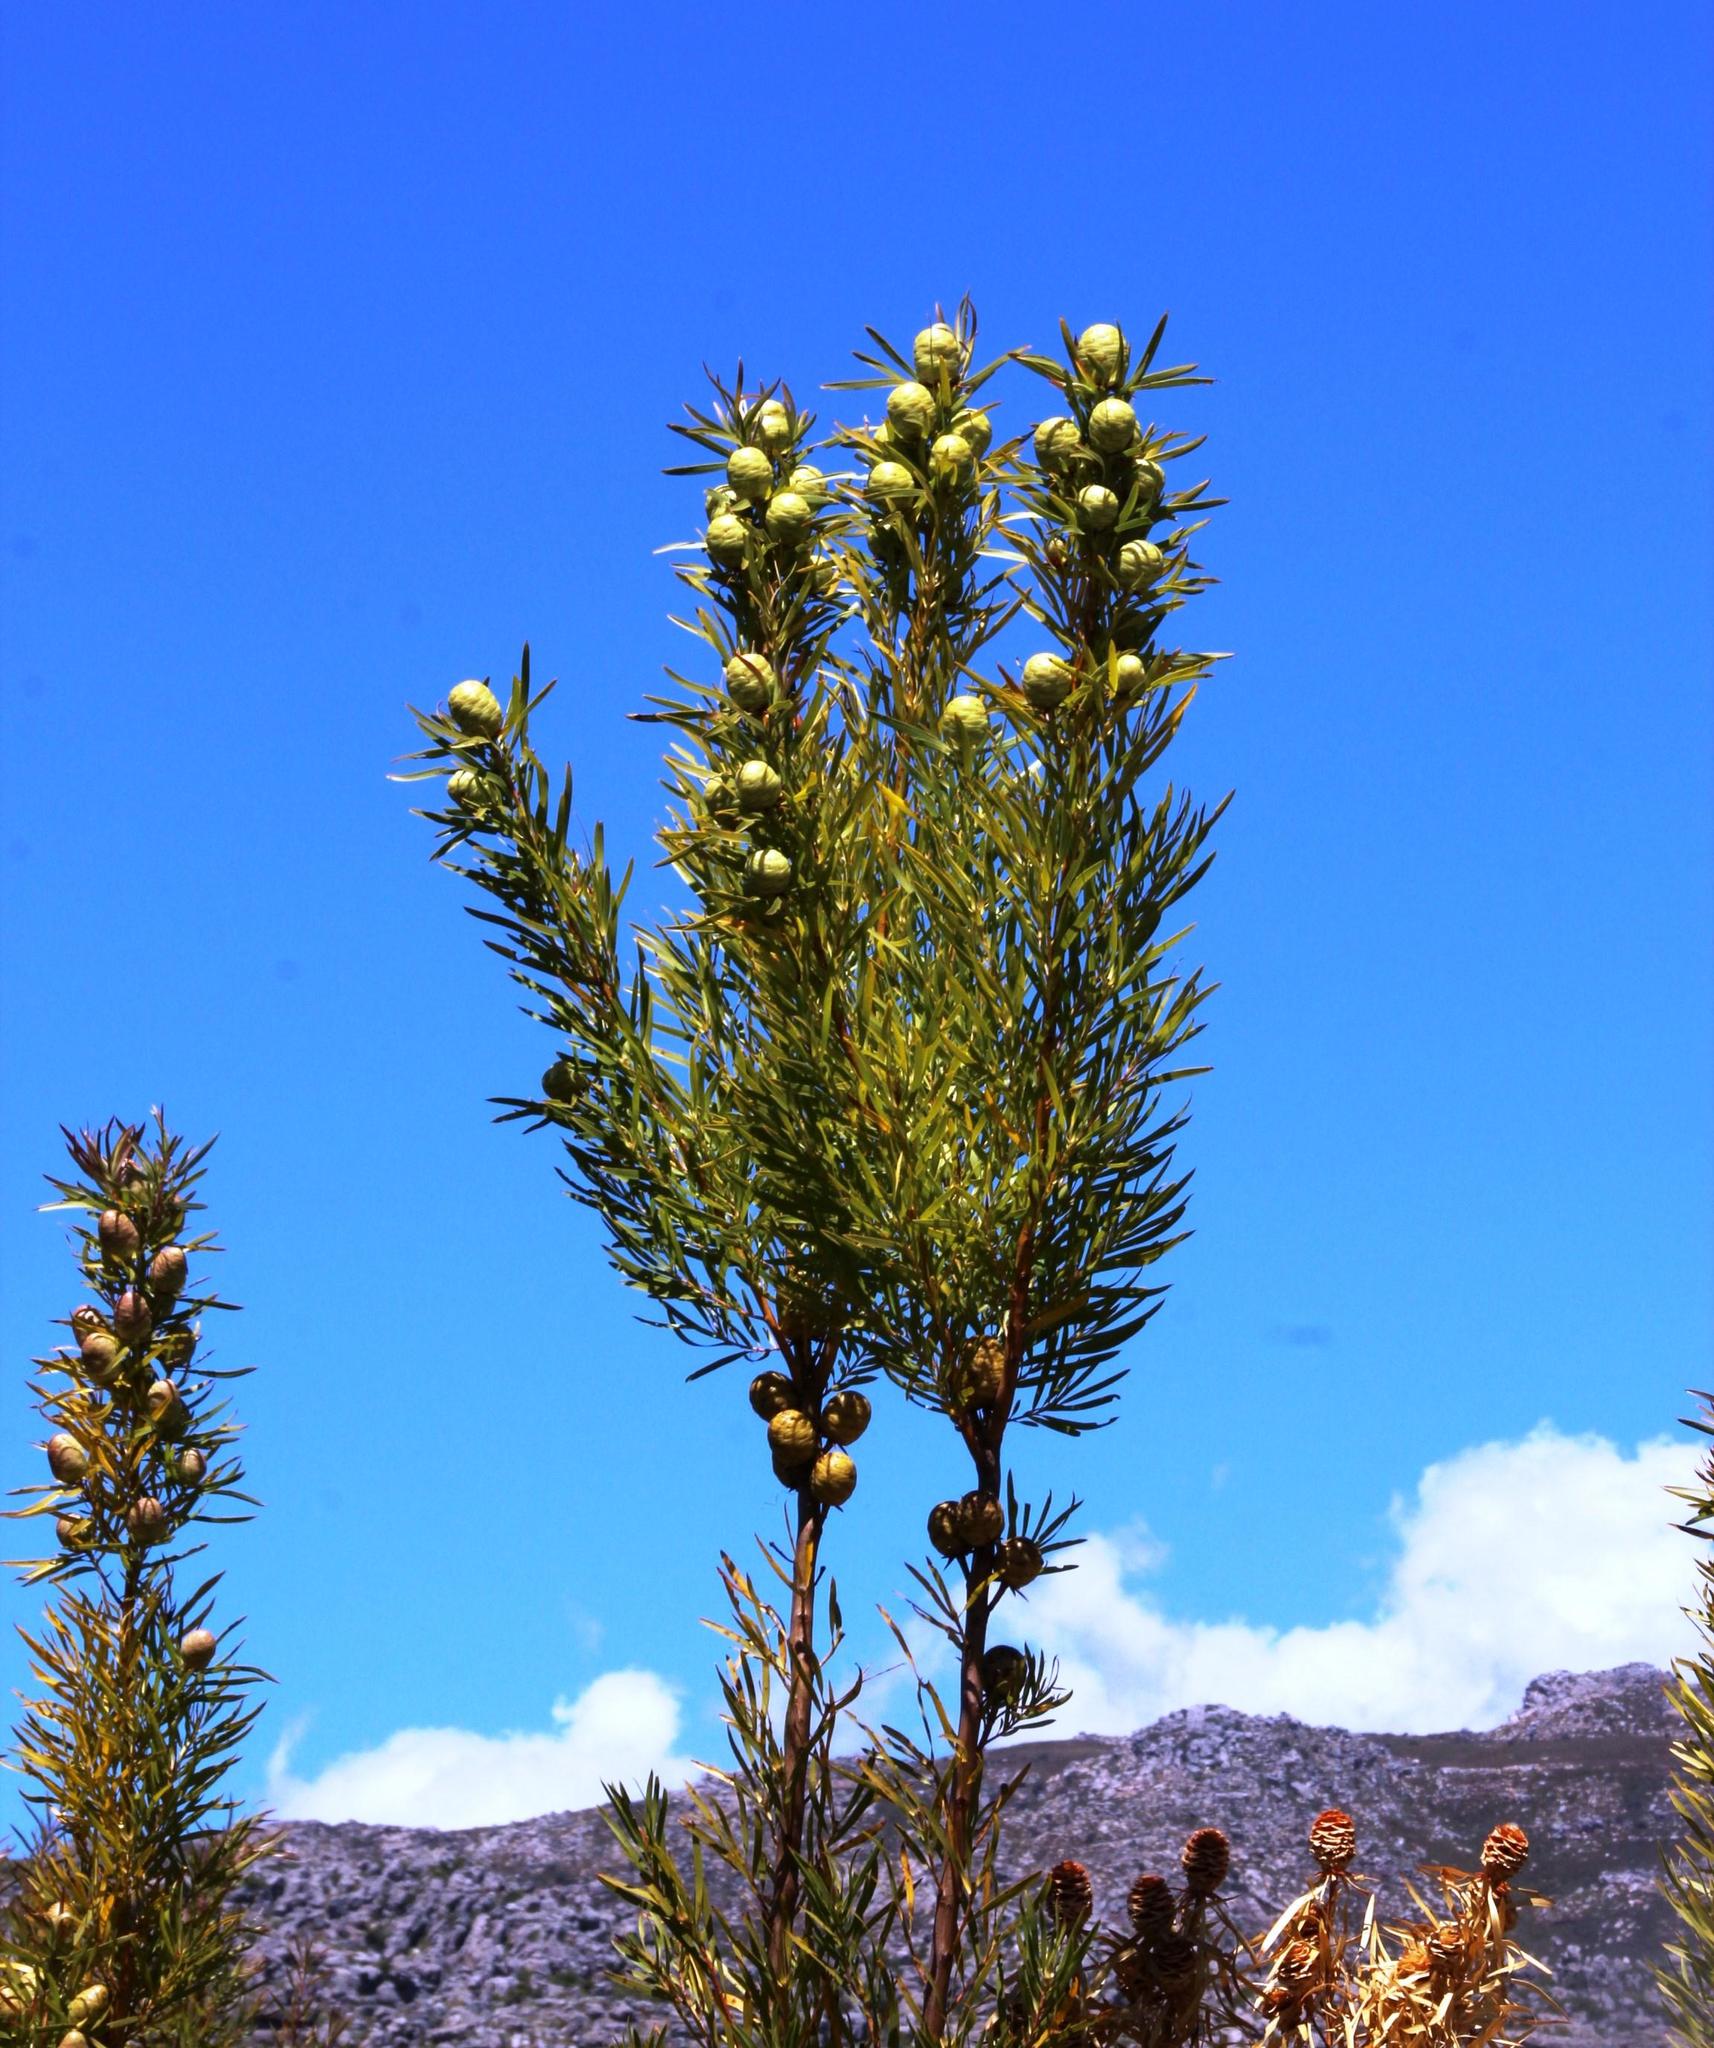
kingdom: Plantae
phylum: Tracheophyta
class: Magnoliopsida
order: Proteales
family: Proteaceae
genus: Leucadendron
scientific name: Leucadendron salicifolium
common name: Common stream conebush
